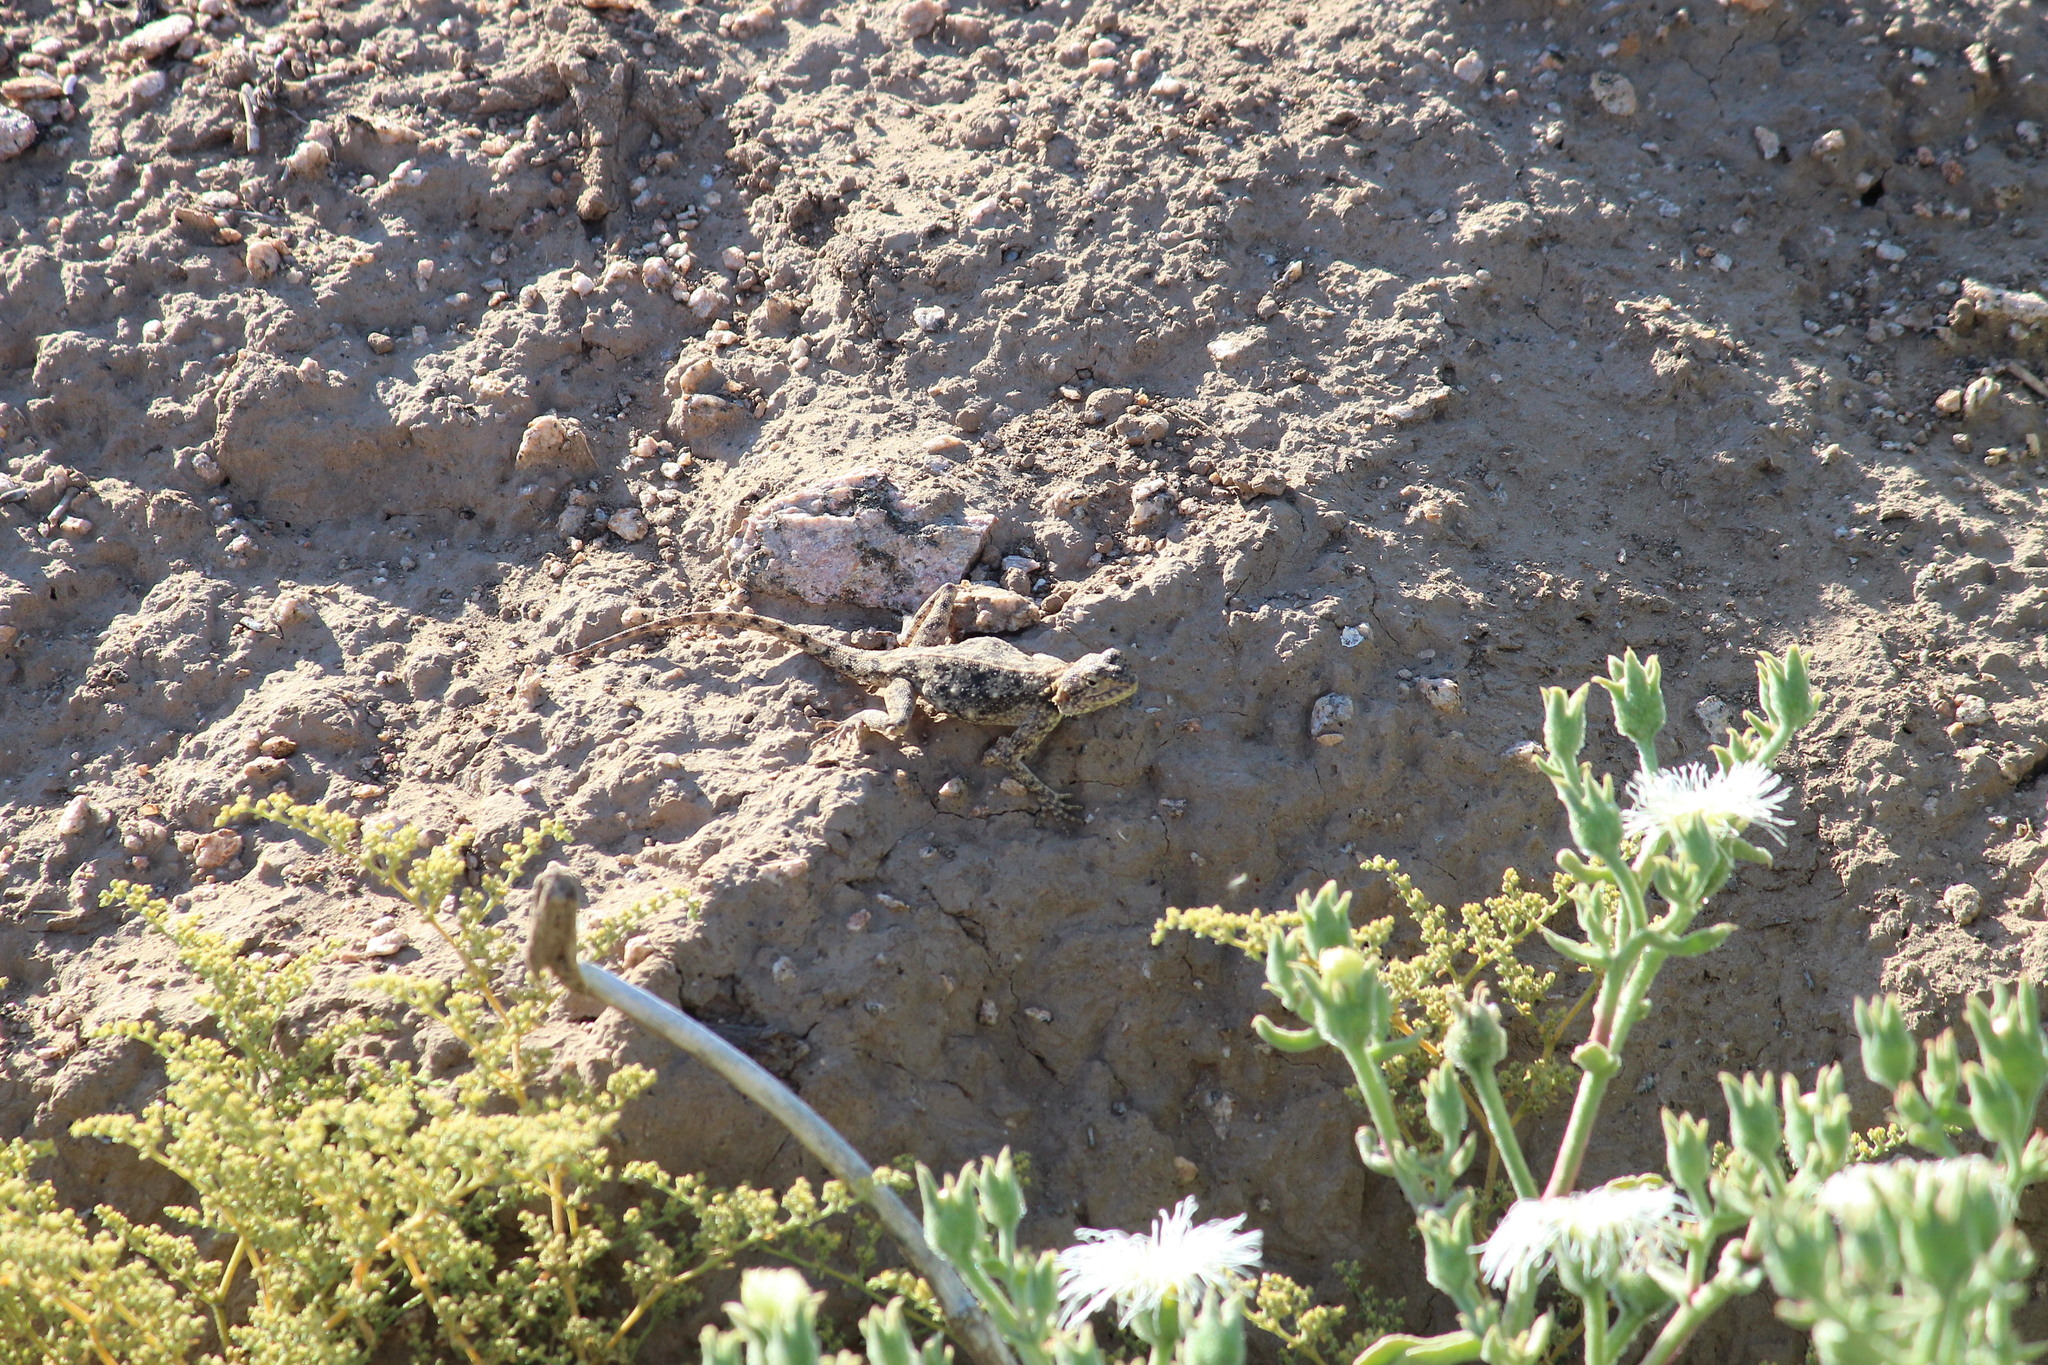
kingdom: Animalia
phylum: Chordata
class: Squamata
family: Agamidae
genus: Agama
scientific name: Agama atra
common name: Southern african rock agama
